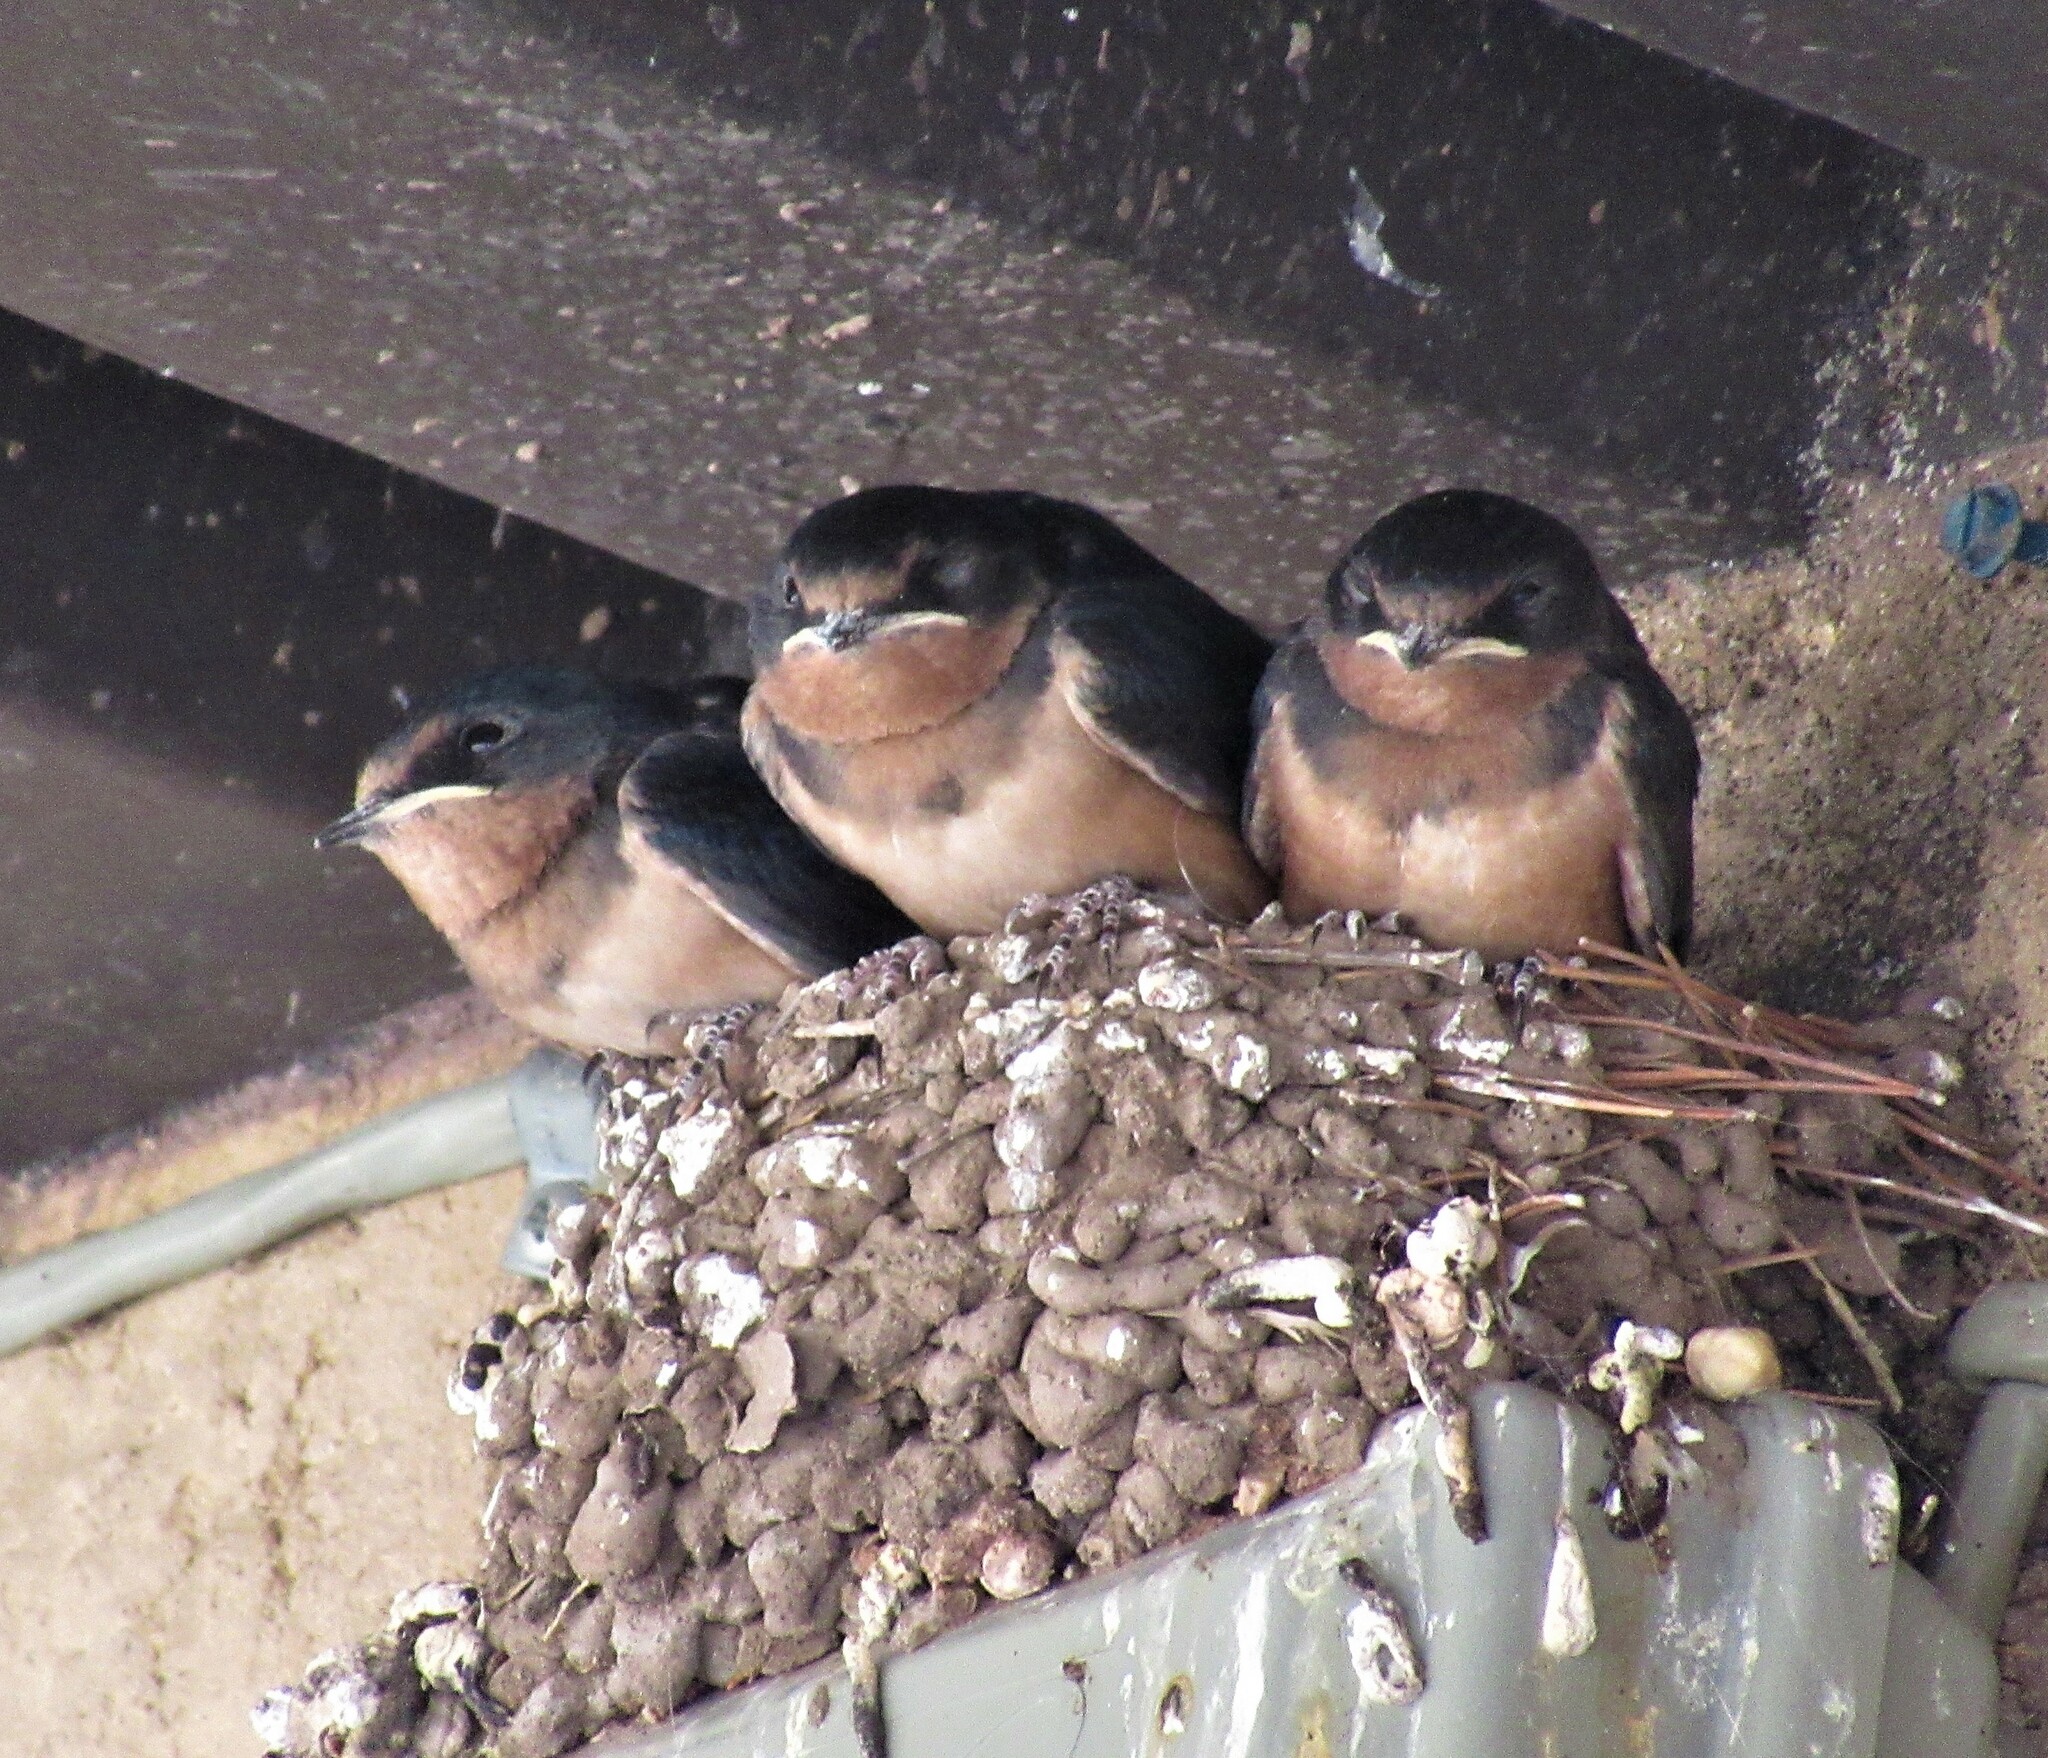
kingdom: Animalia
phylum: Chordata
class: Aves
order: Passeriformes
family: Hirundinidae
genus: Hirundo
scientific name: Hirundo rustica
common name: Barn swallow
